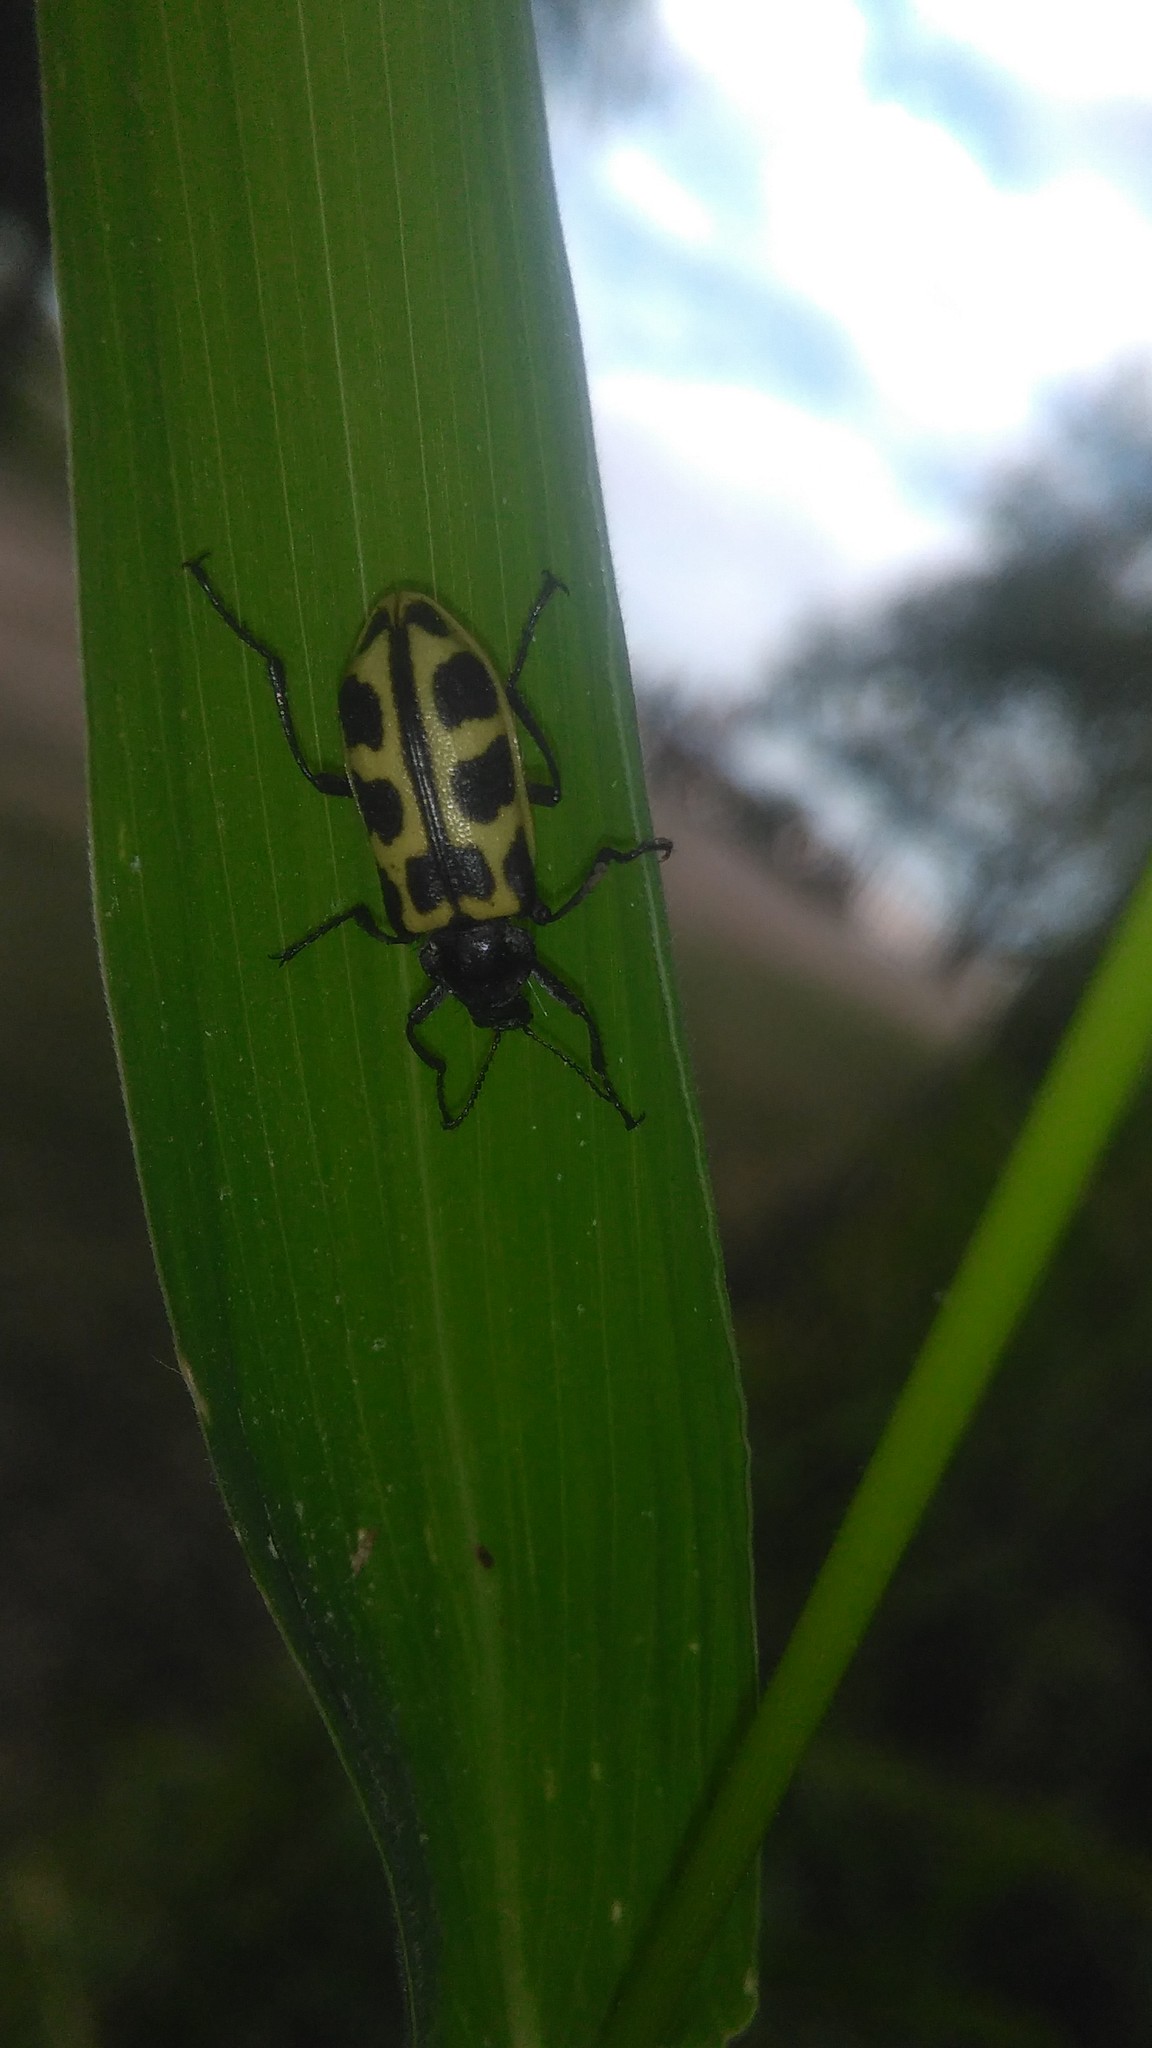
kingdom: Animalia
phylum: Arthropoda
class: Insecta
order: Coleoptera
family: Melyridae
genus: Astylus
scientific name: Astylus atromaculatus
